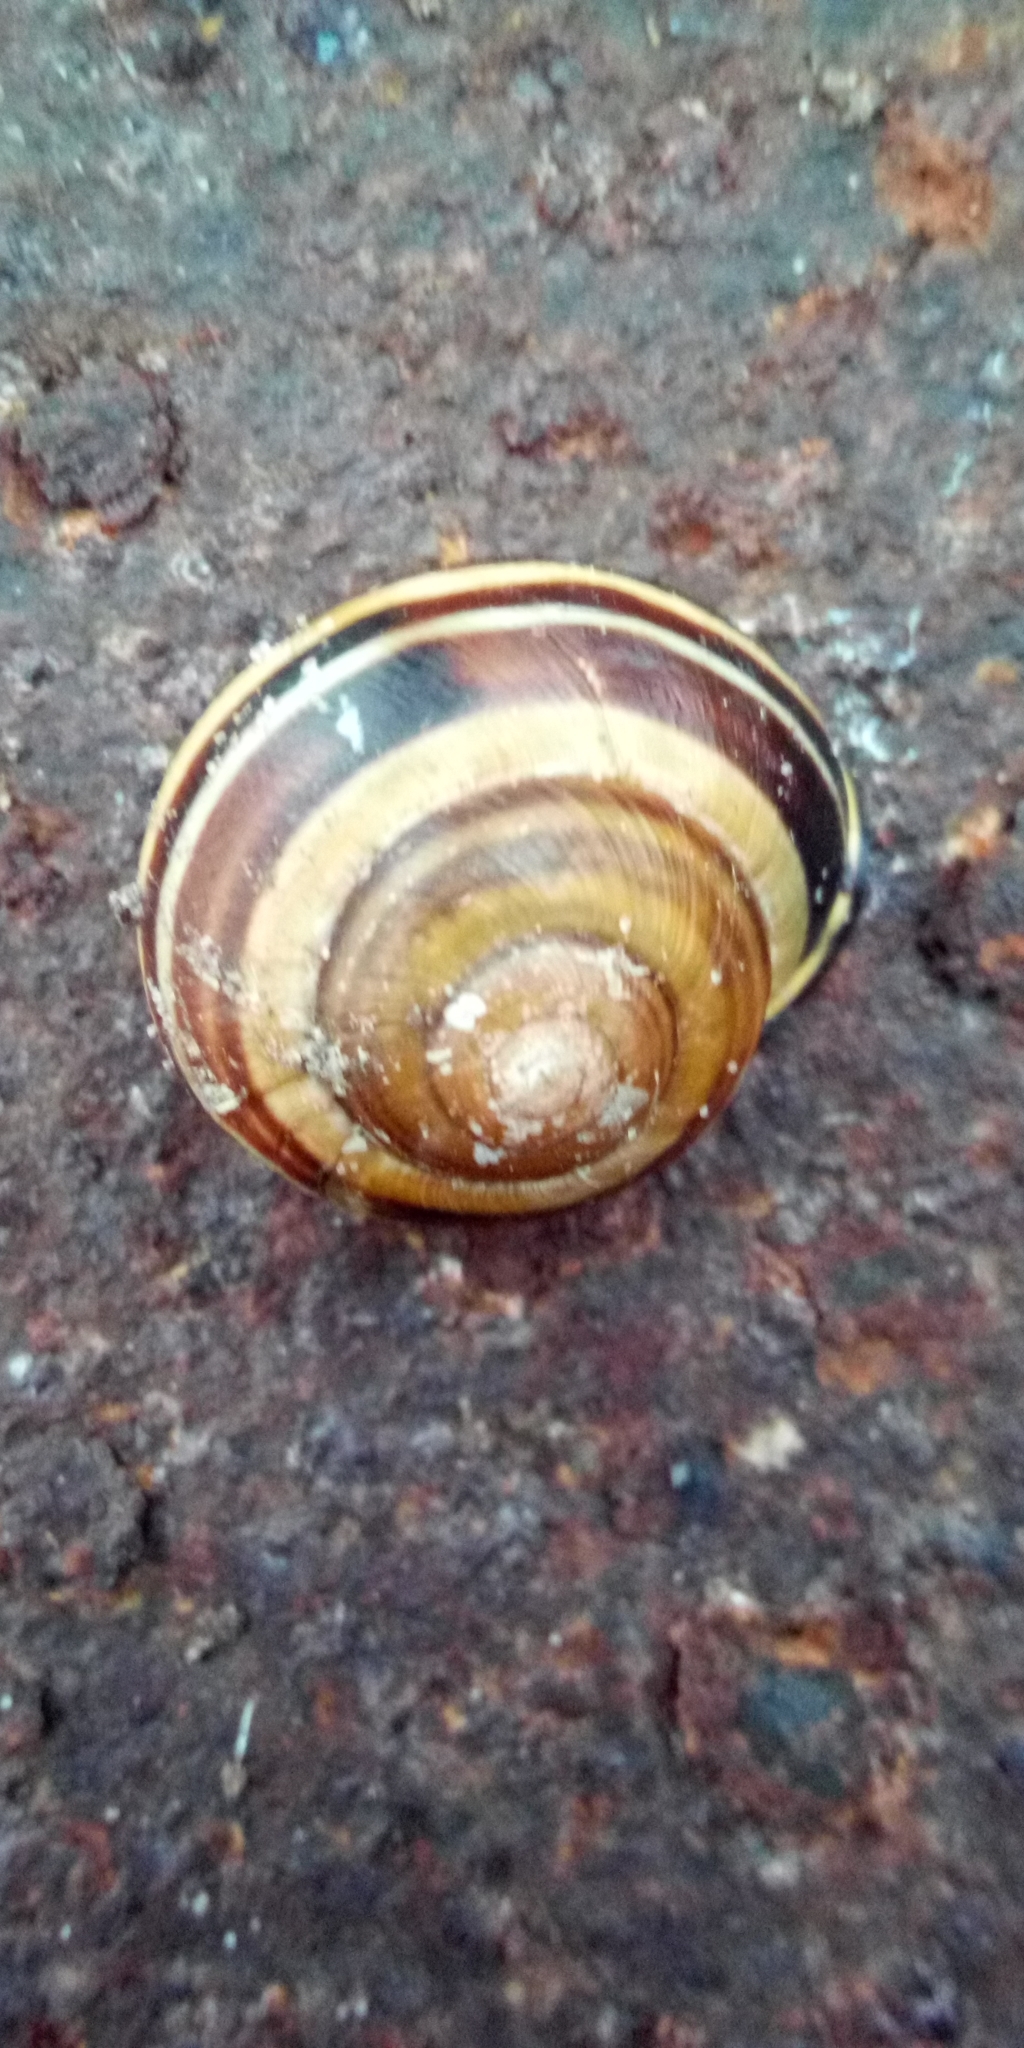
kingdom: Animalia
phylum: Mollusca
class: Gastropoda
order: Stylommatophora
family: Helicidae
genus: Cepaea
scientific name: Cepaea nemoralis
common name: Grovesnail
